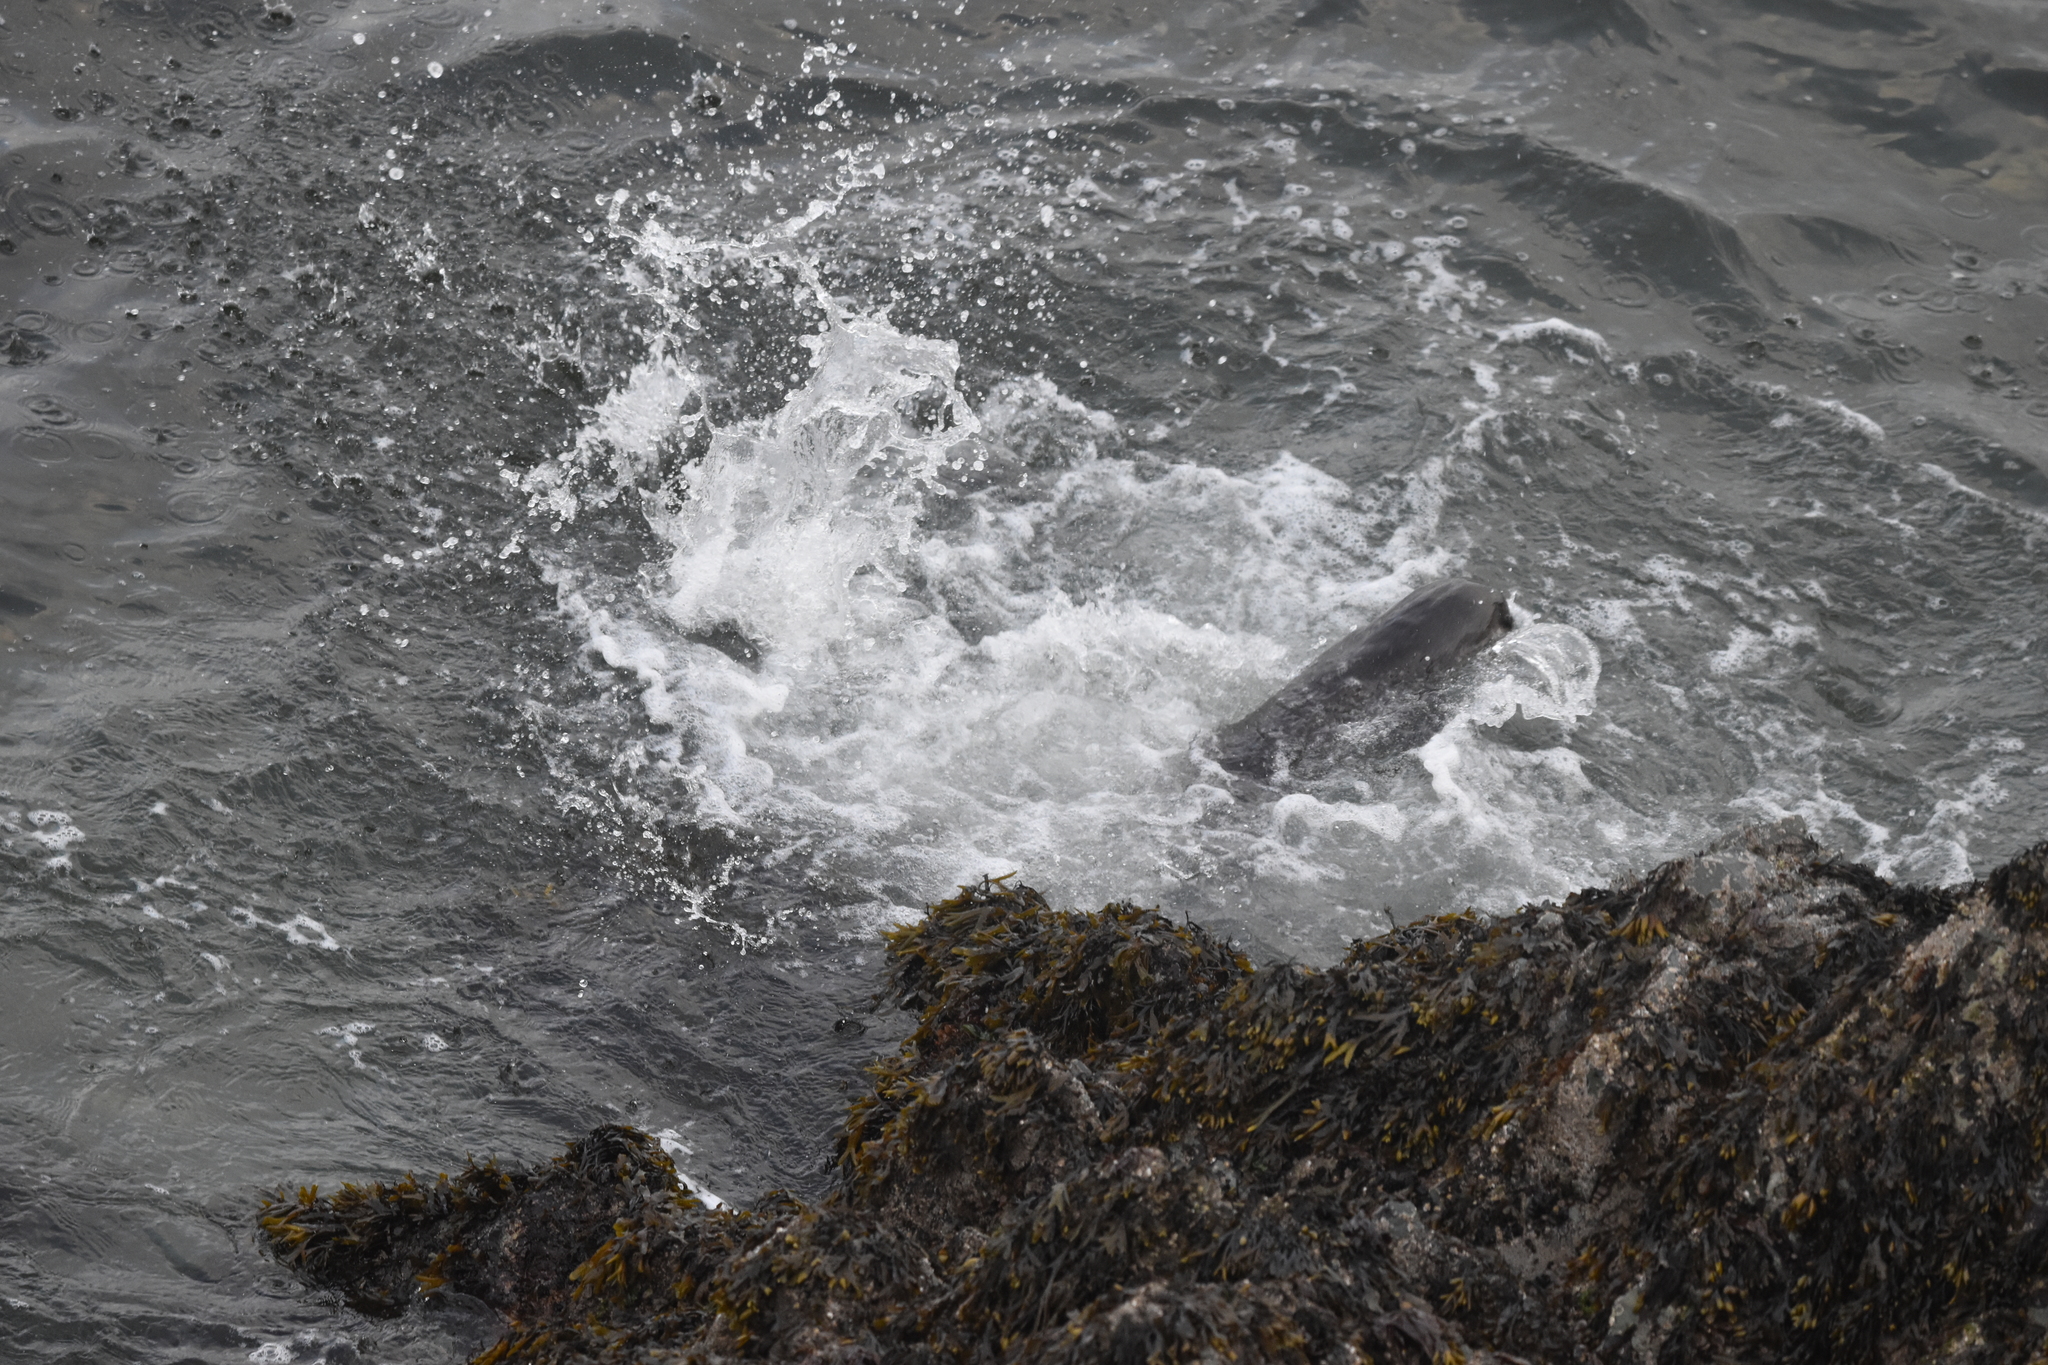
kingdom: Animalia
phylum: Chordata
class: Mammalia
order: Carnivora
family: Mustelidae
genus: Lontra
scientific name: Lontra canadensis
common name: North american river otter
